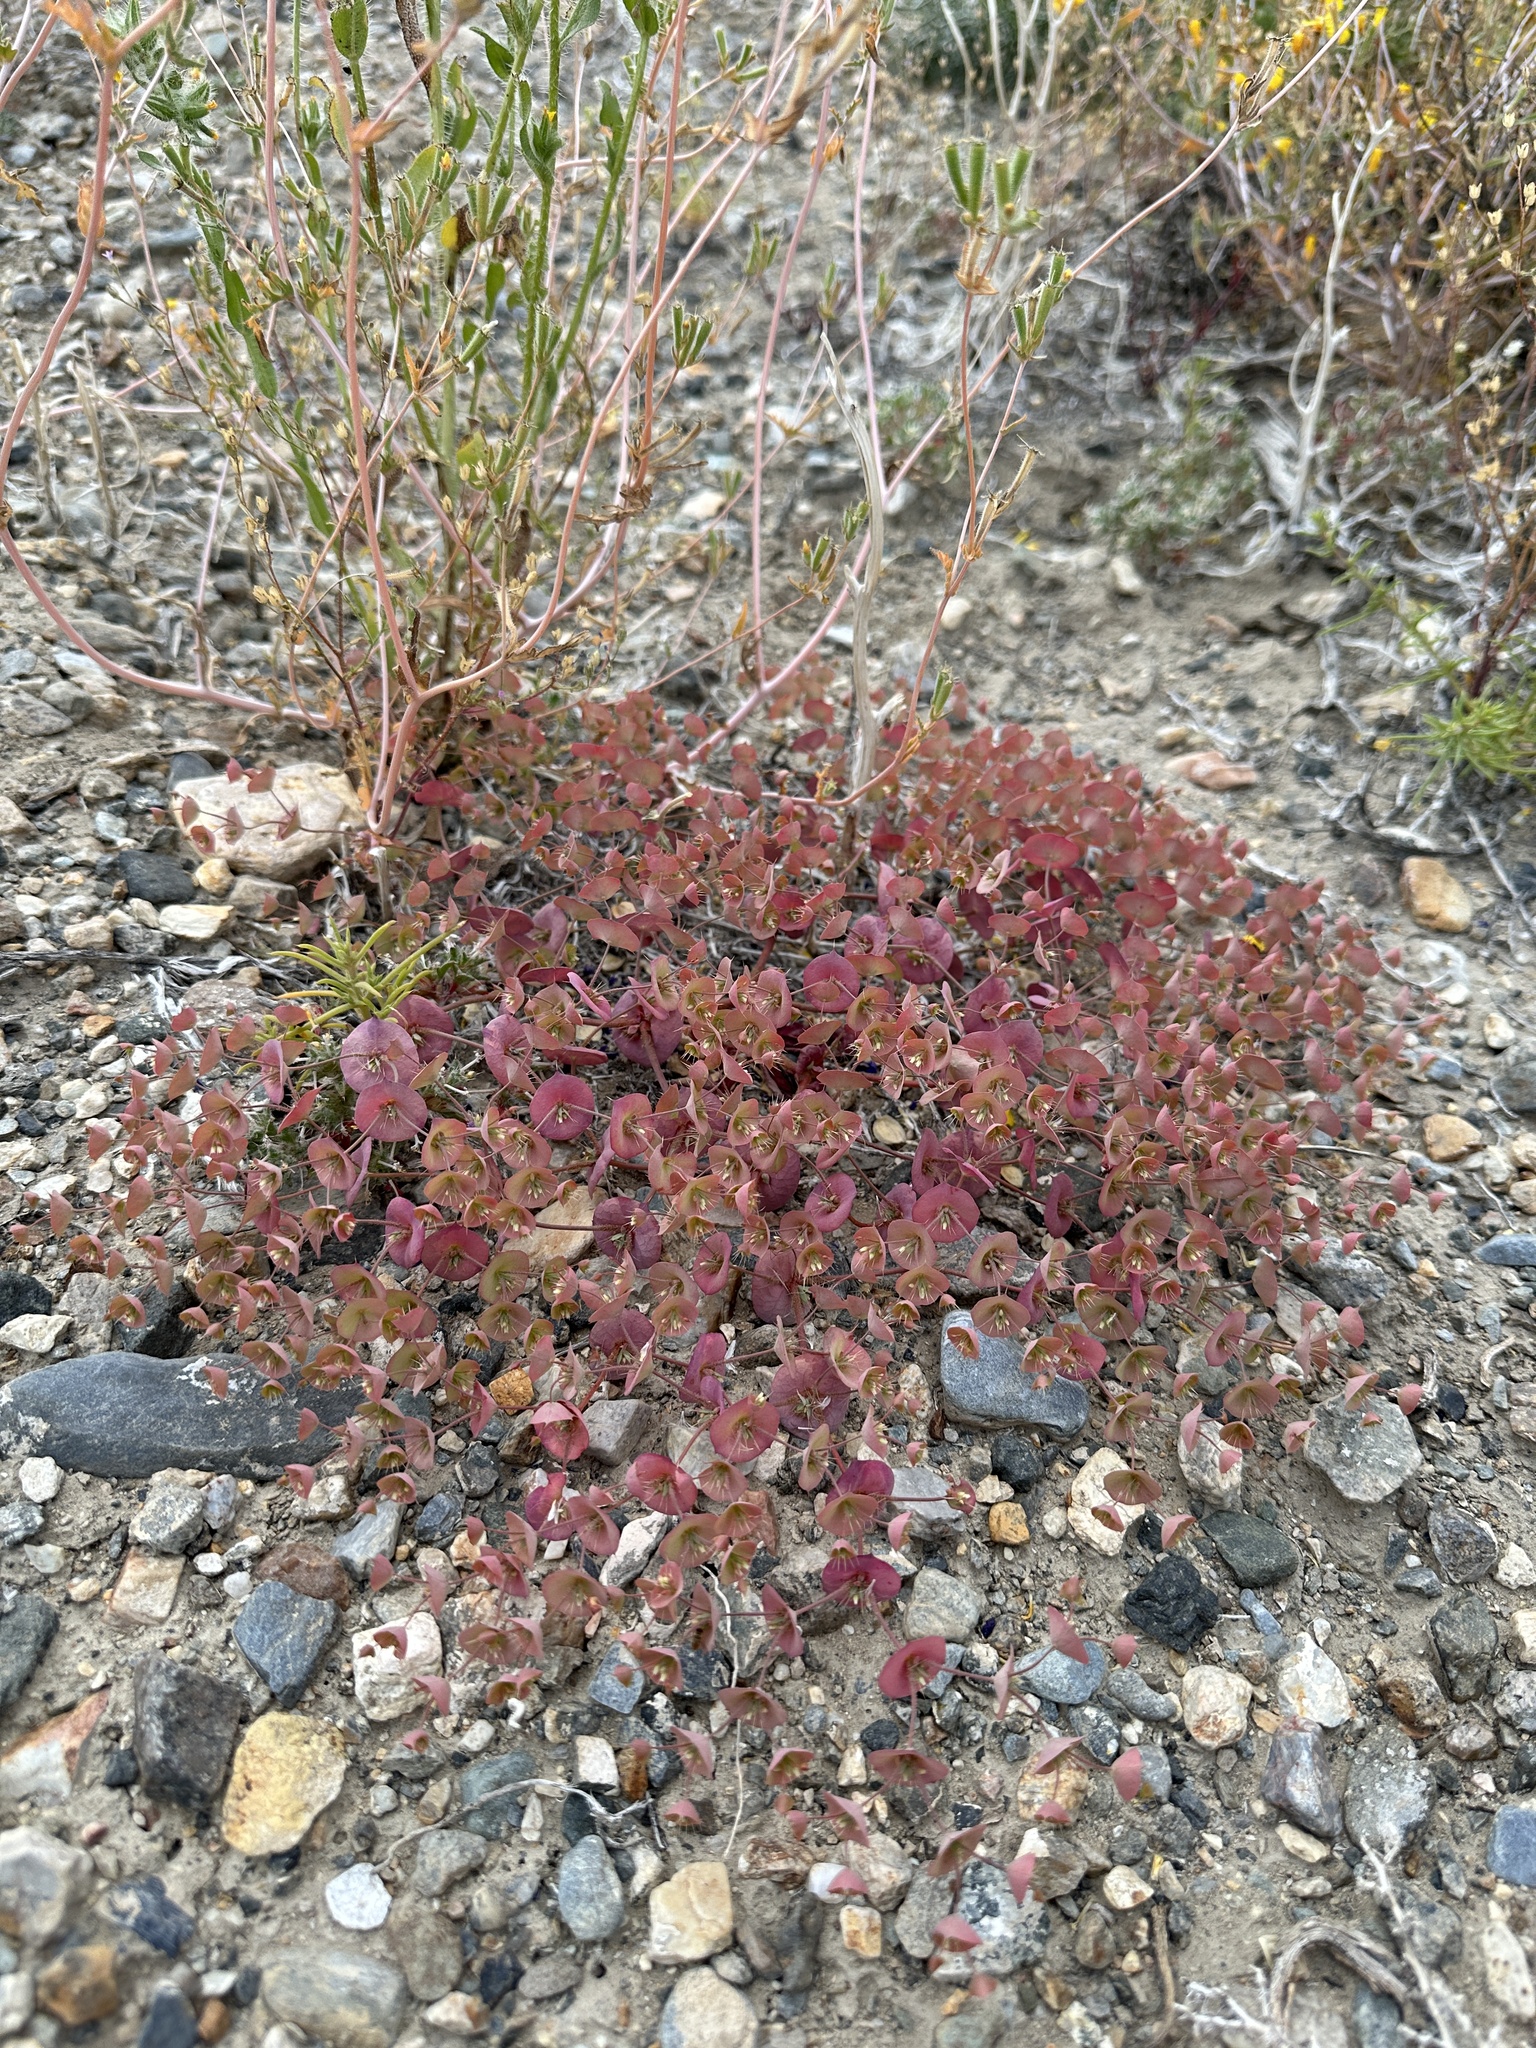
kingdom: Plantae
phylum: Tracheophyta
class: Magnoliopsida
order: Caryophyllales
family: Polygonaceae
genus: Oxytheca
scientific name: Oxytheca perfoliata
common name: Round-leaf puncturebract
